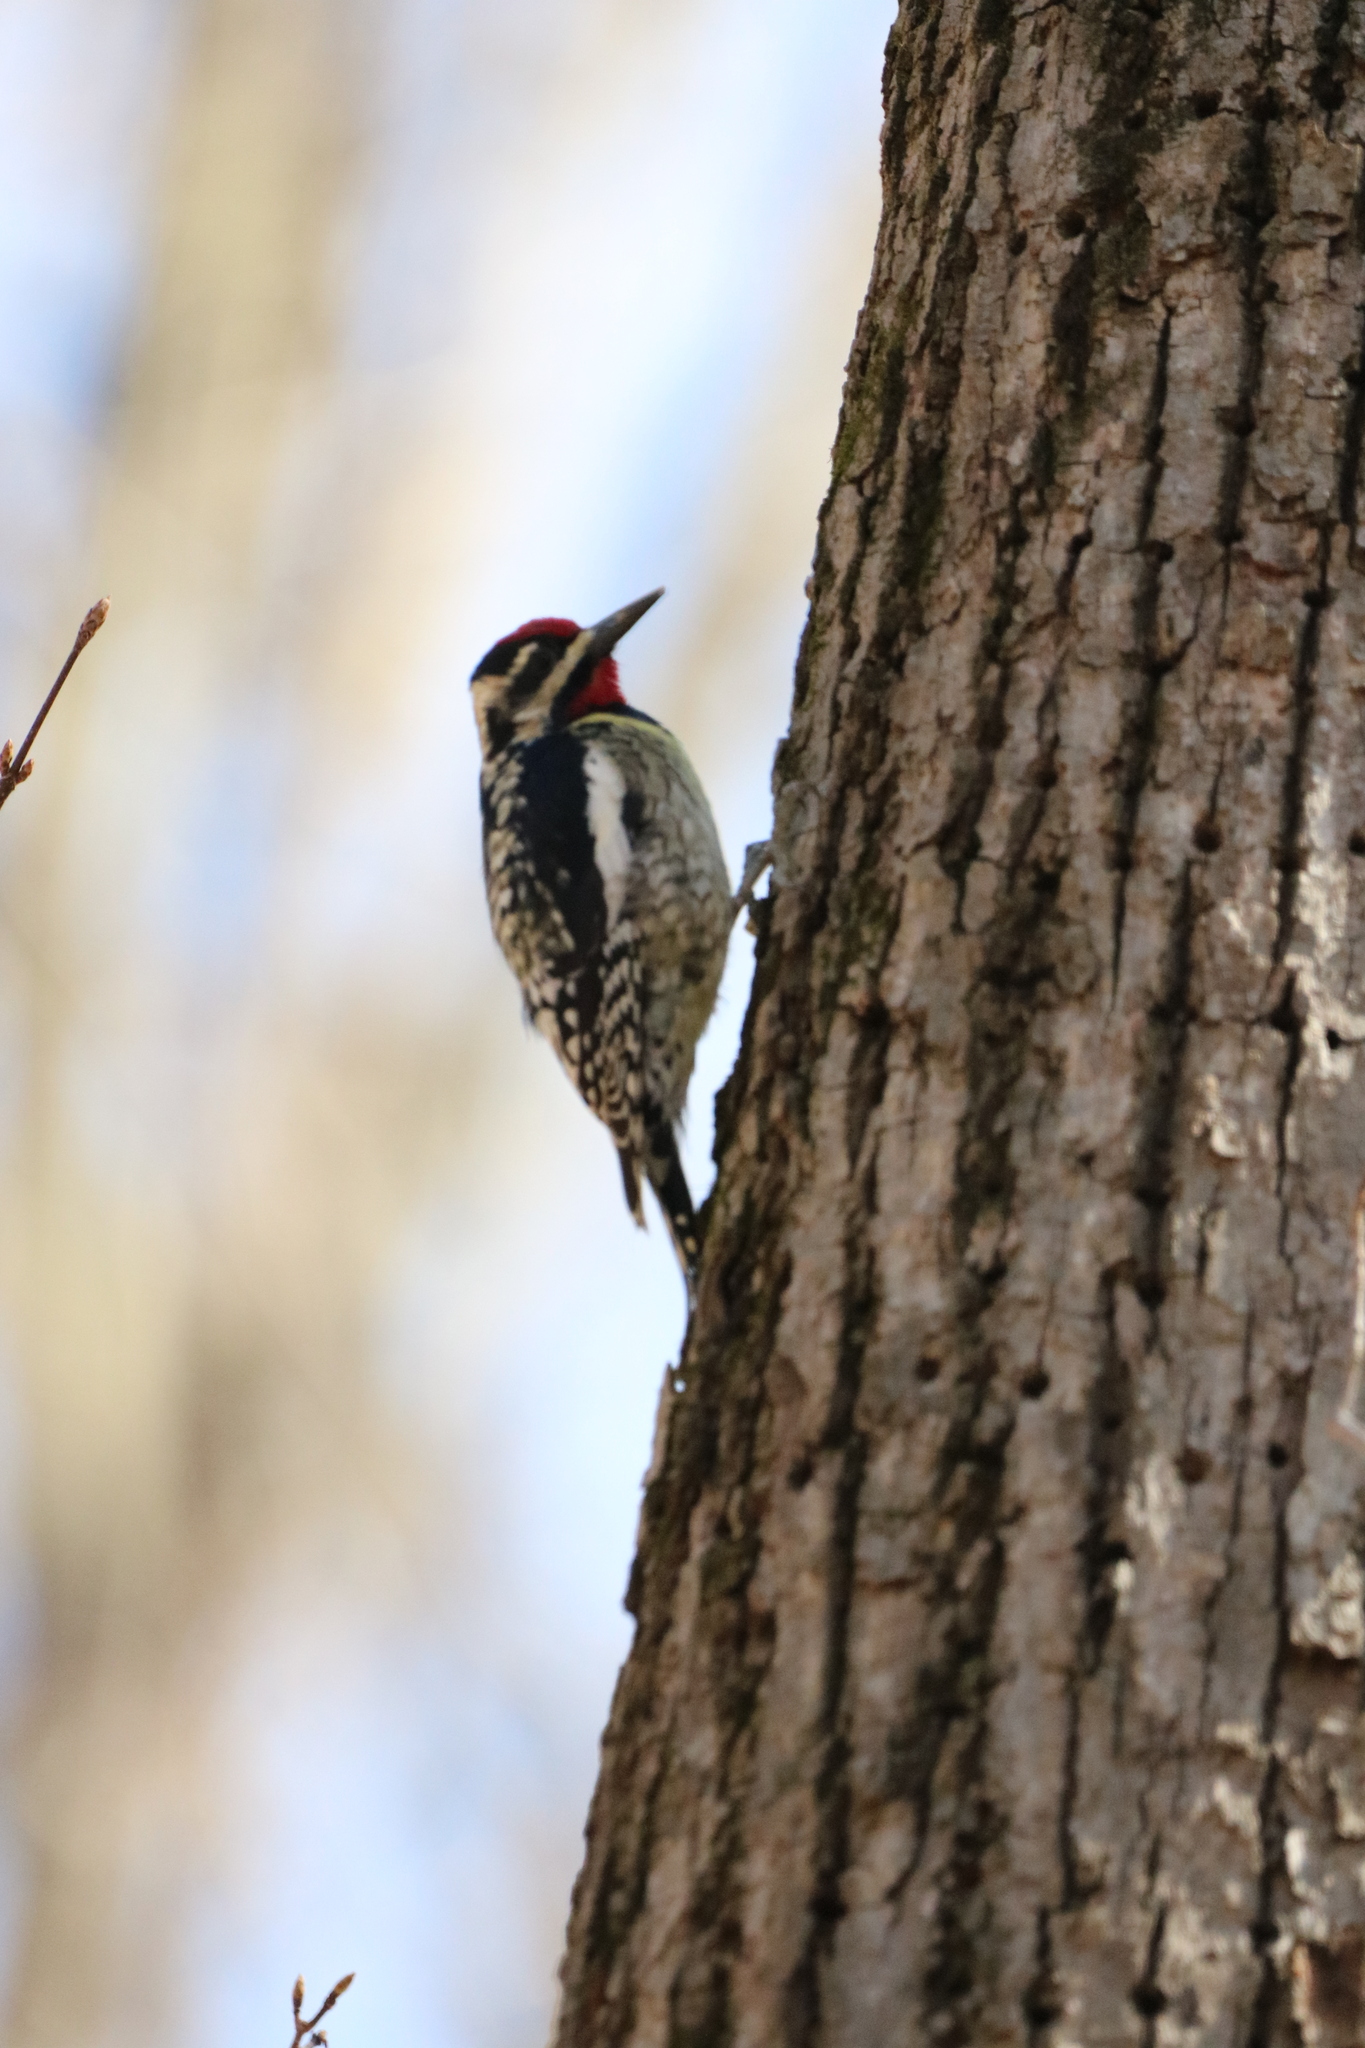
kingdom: Animalia
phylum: Chordata
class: Aves
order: Piciformes
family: Picidae
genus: Sphyrapicus
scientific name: Sphyrapicus varius
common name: Yellow-bellied sapsucker
